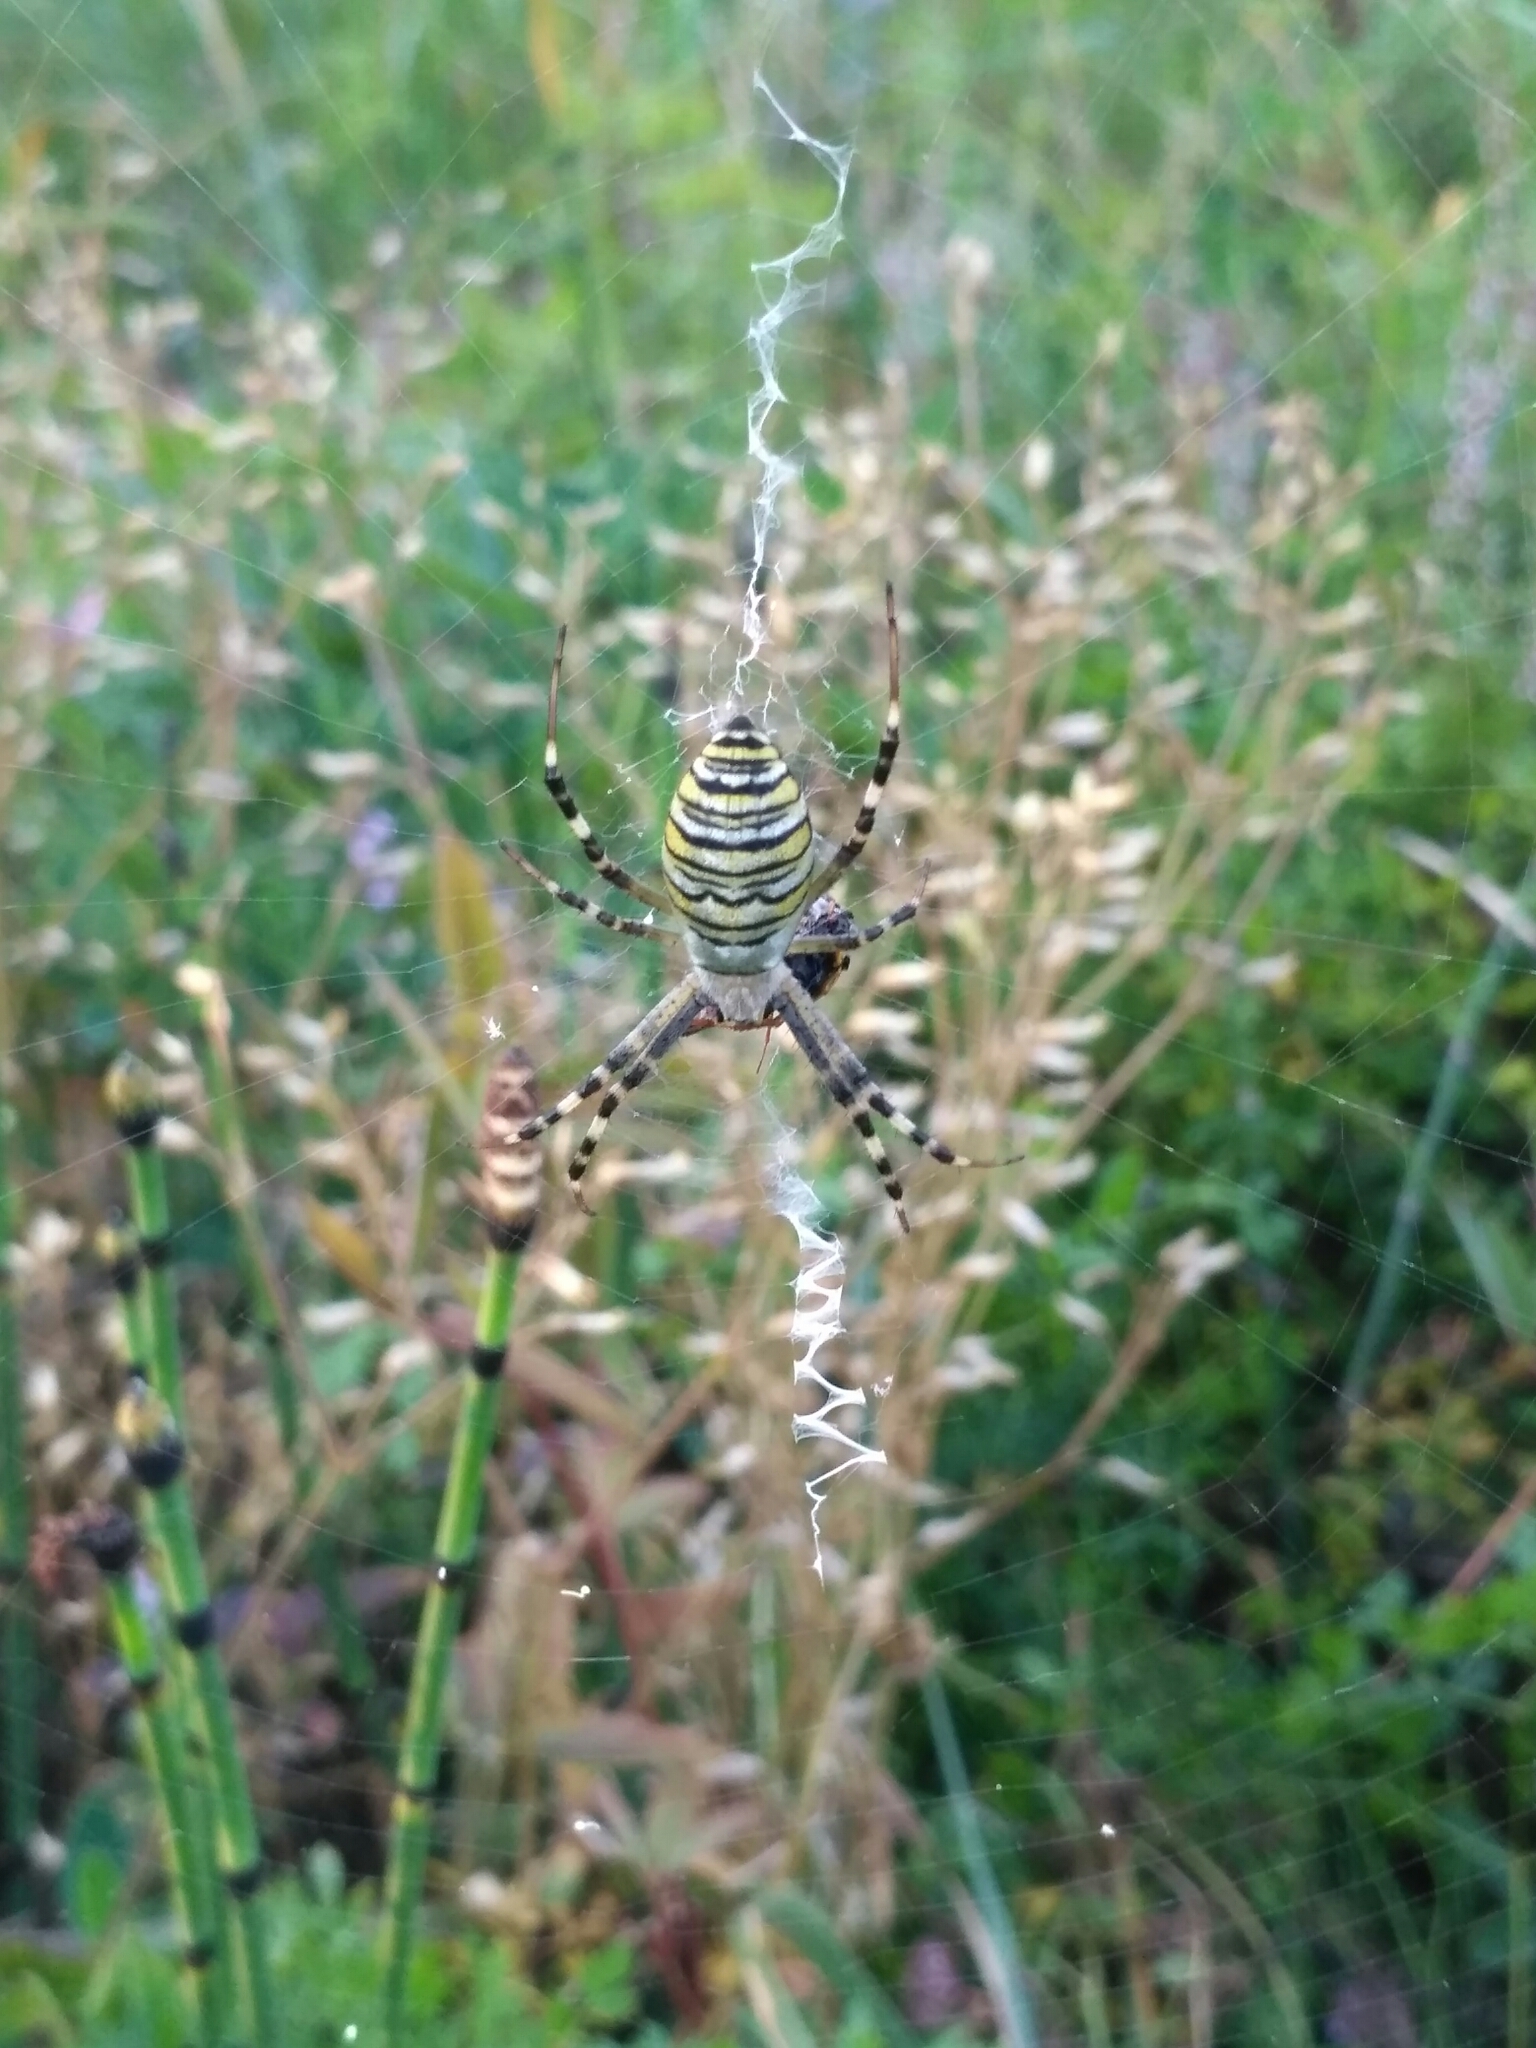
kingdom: Animalia
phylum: Arthropoda
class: Arachnida
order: Araneae
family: Araneidae
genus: Argiope
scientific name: Argiope bruennichi
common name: Wasp spider
